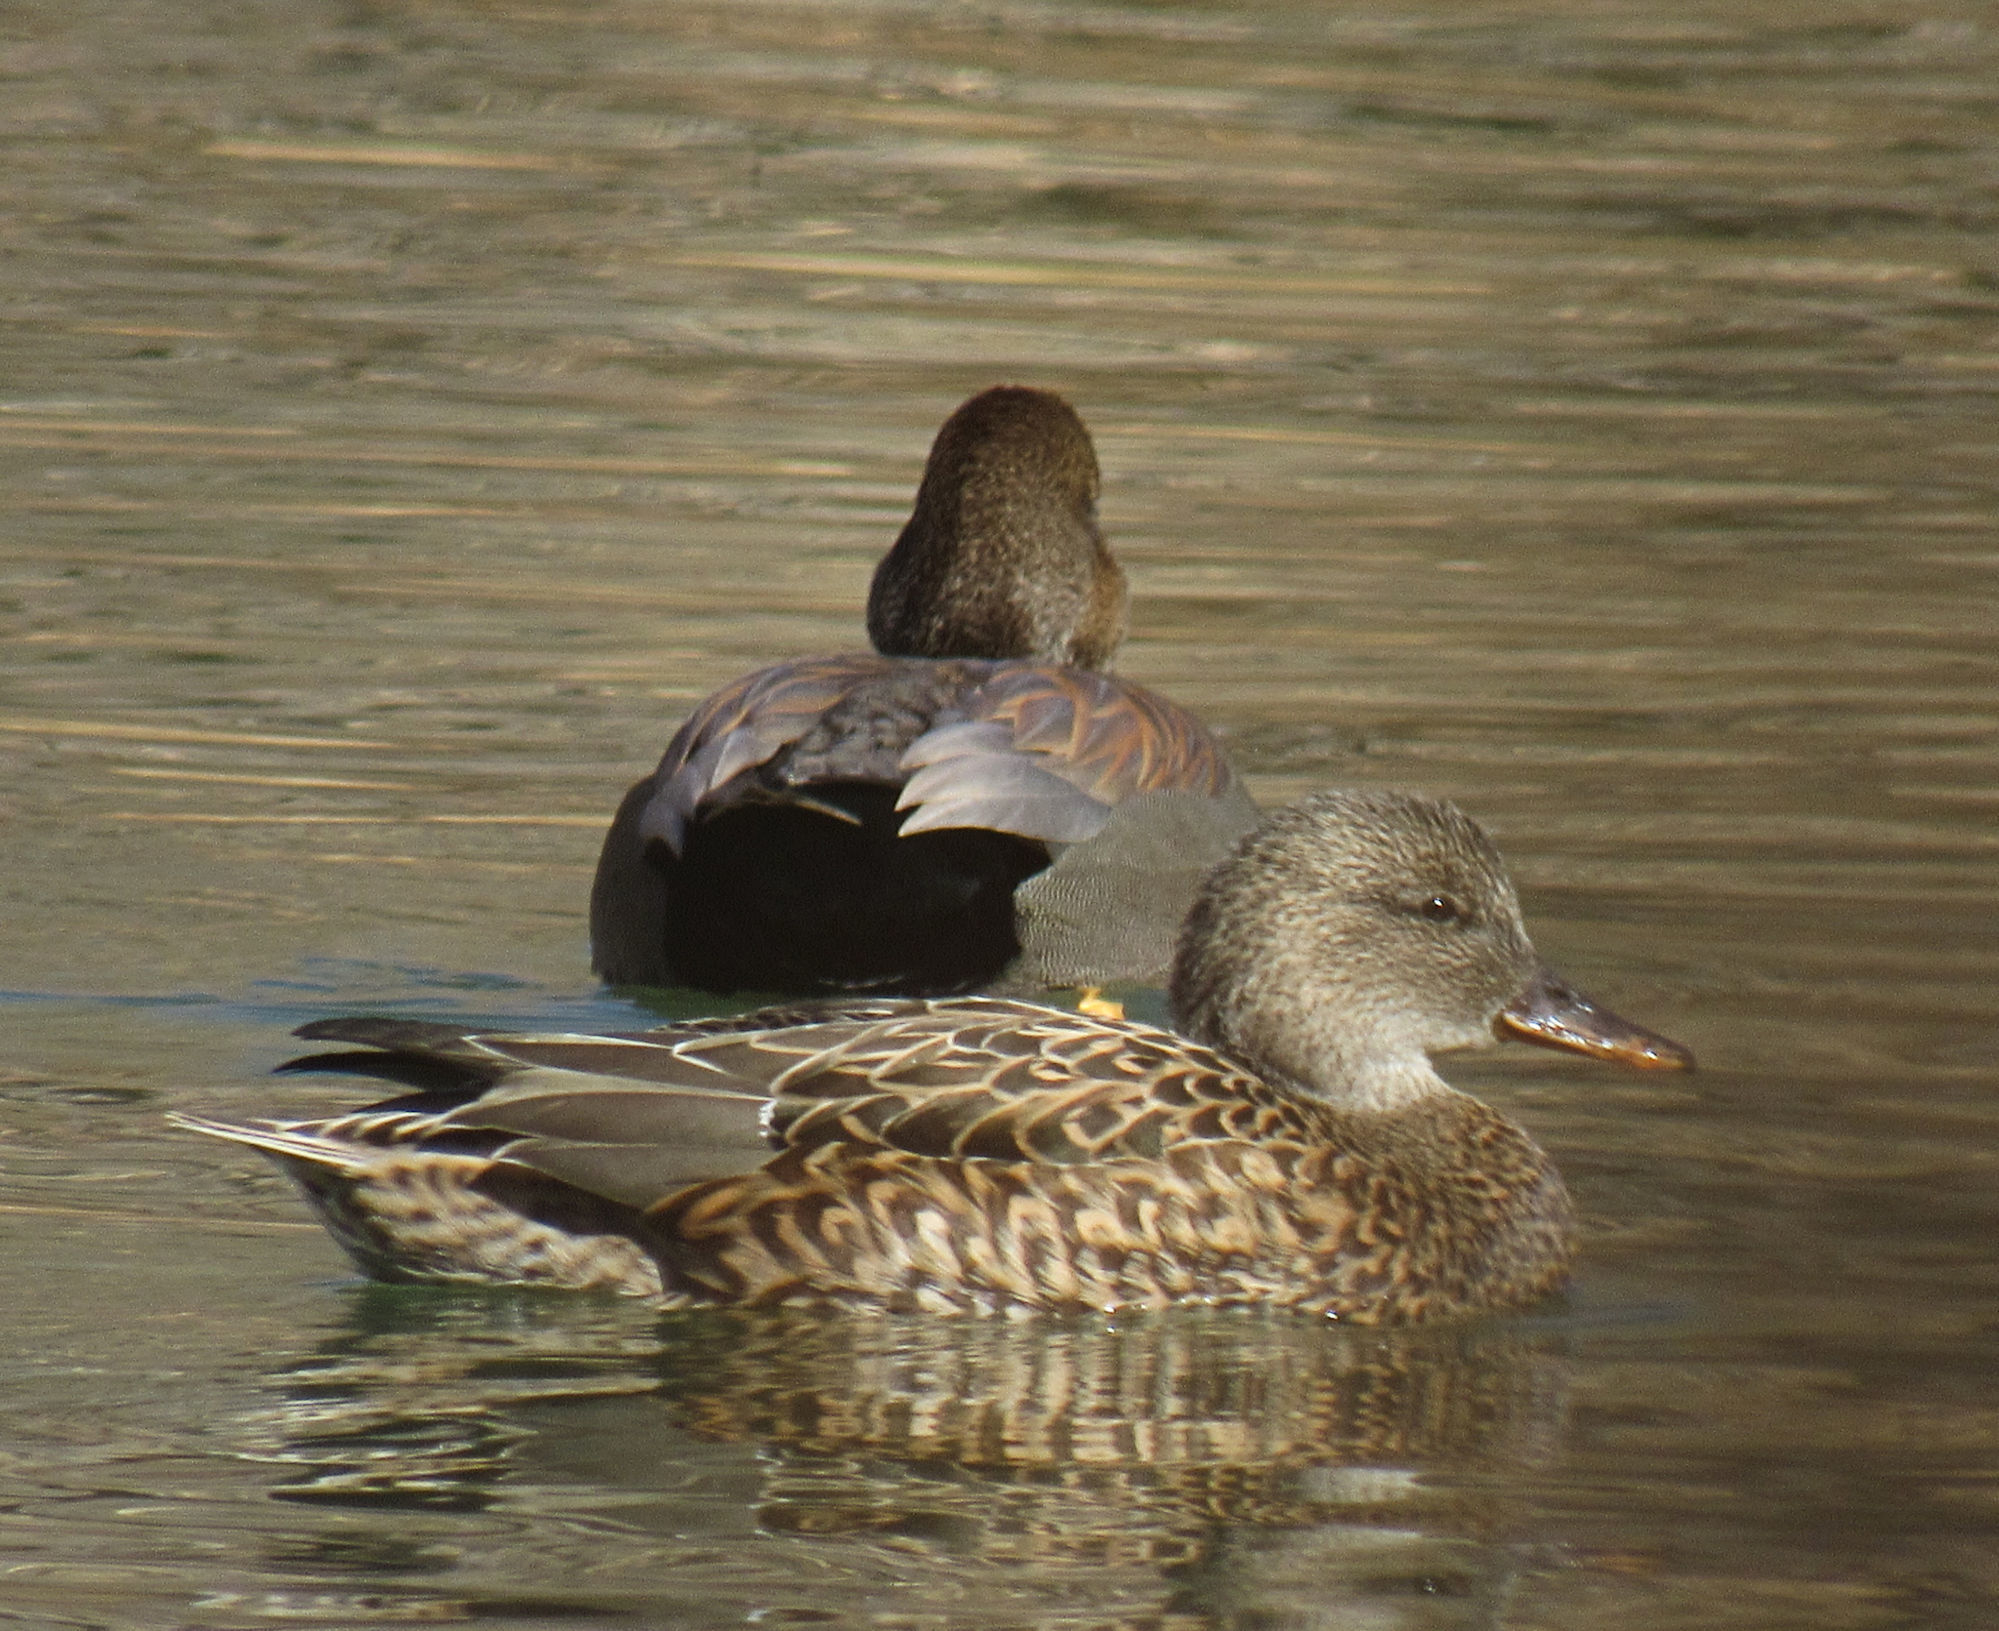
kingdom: Animalia
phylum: Chordata
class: Aves
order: Anseriformes
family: Anatidae
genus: Mareca
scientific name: Mareca strepera
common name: Gadwall
